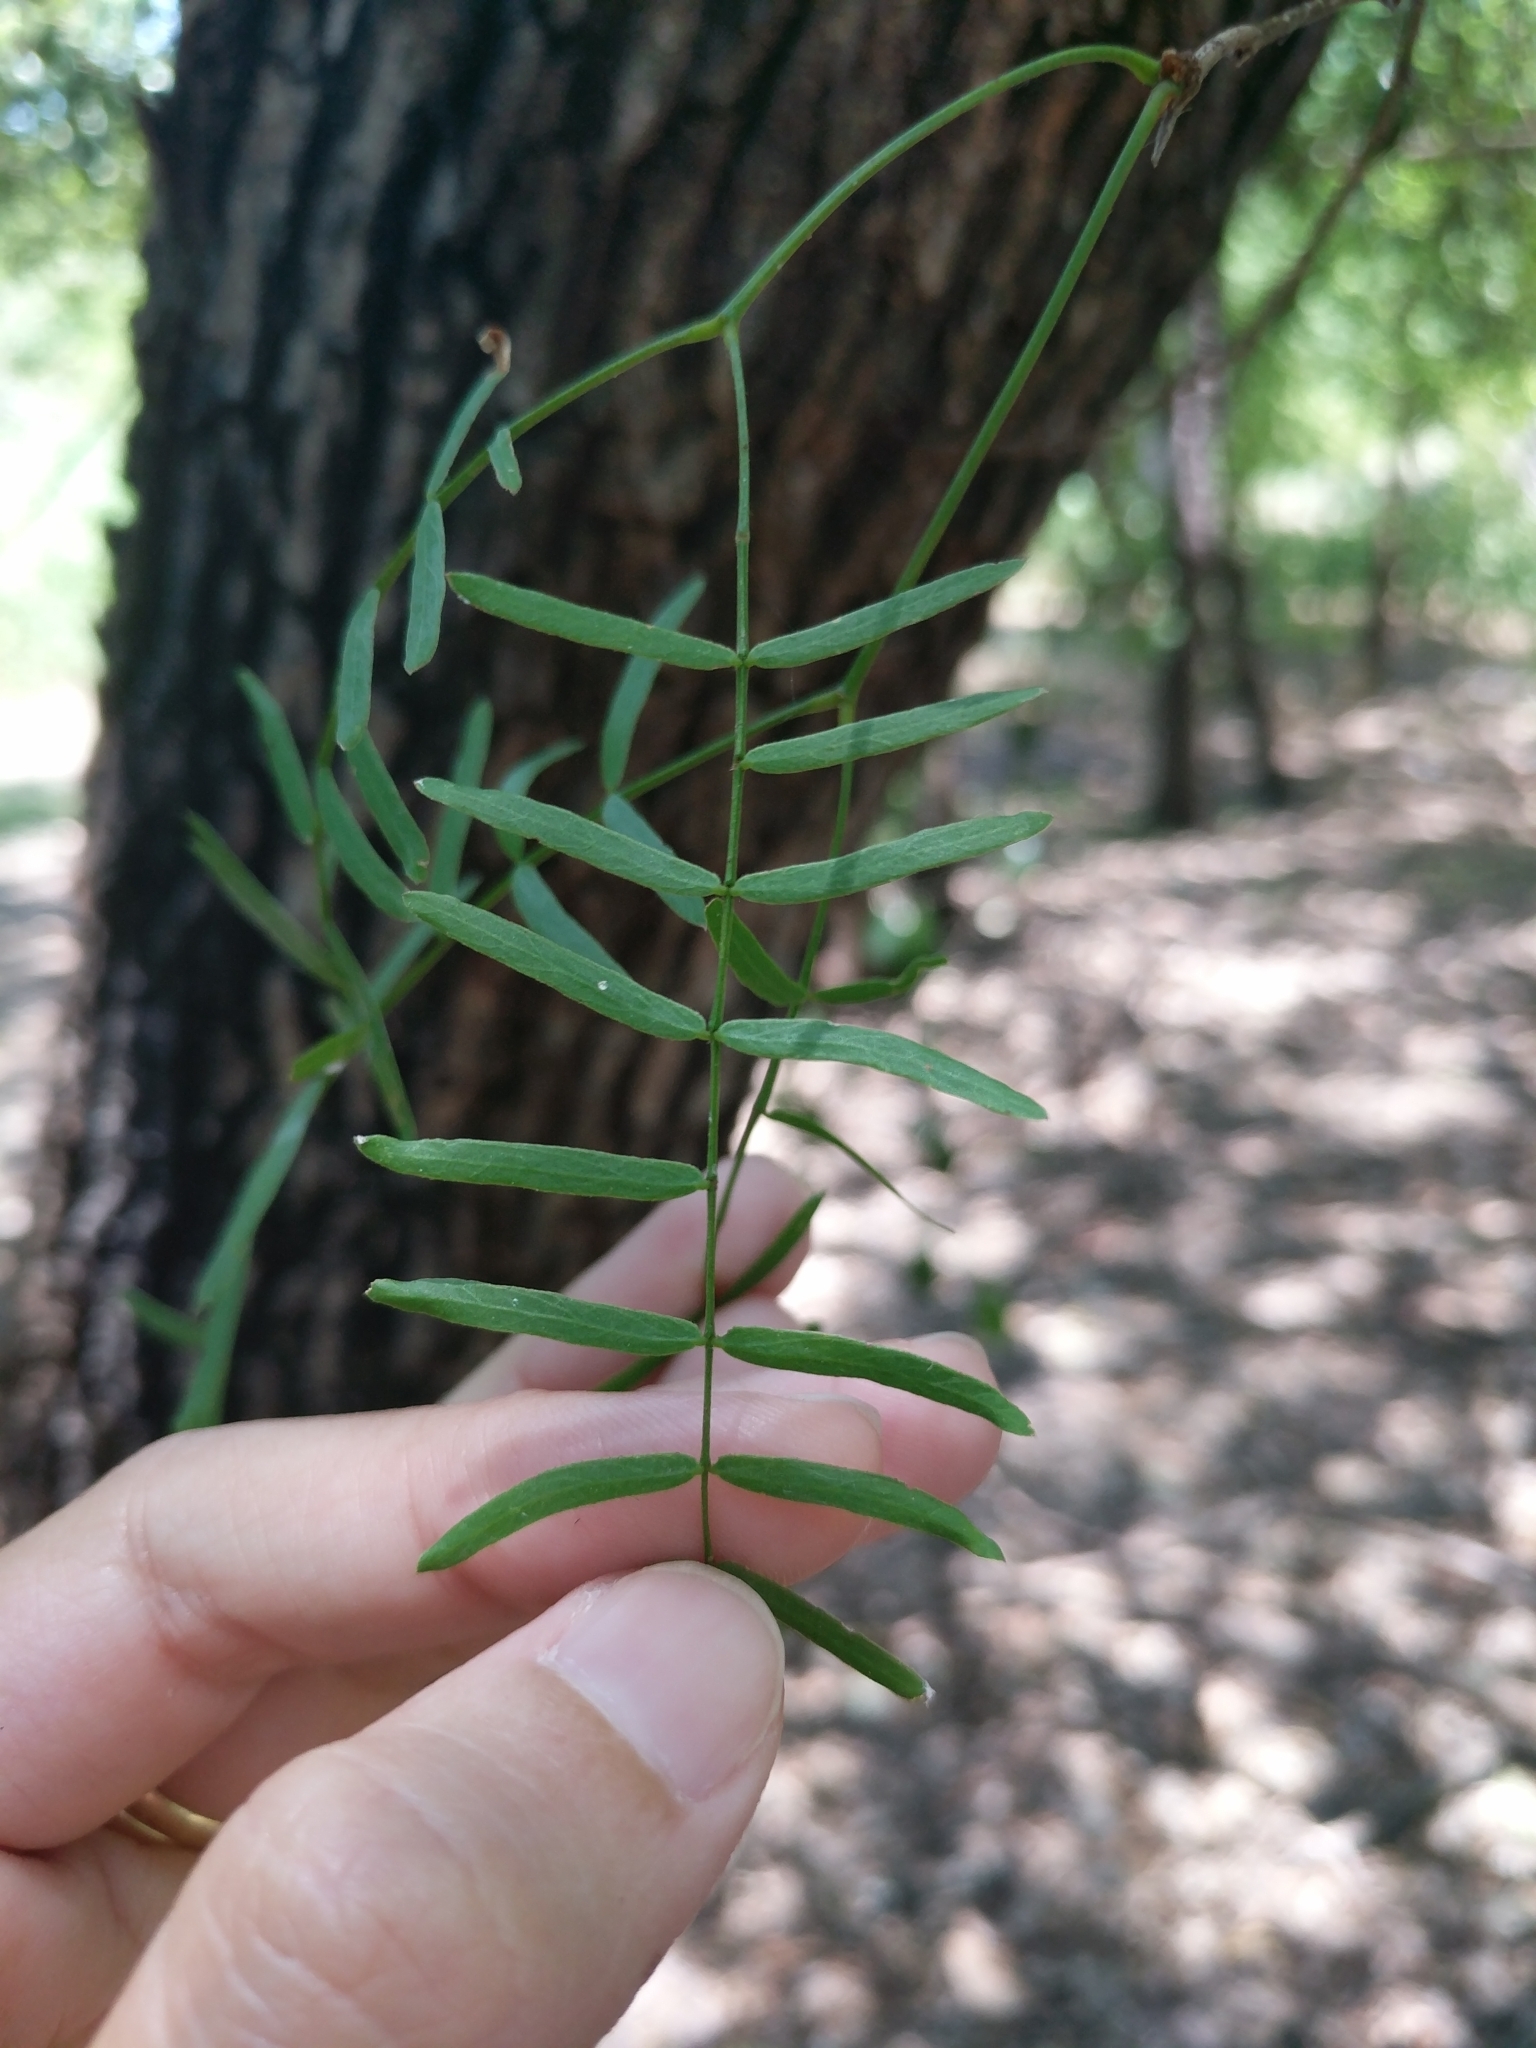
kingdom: Plantae
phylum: Tracheophyta
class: Magnoliopsida
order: Fabales
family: Fabaceae
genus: Prosopis
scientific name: Prosopis glandulosa
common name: Honey mesquite
